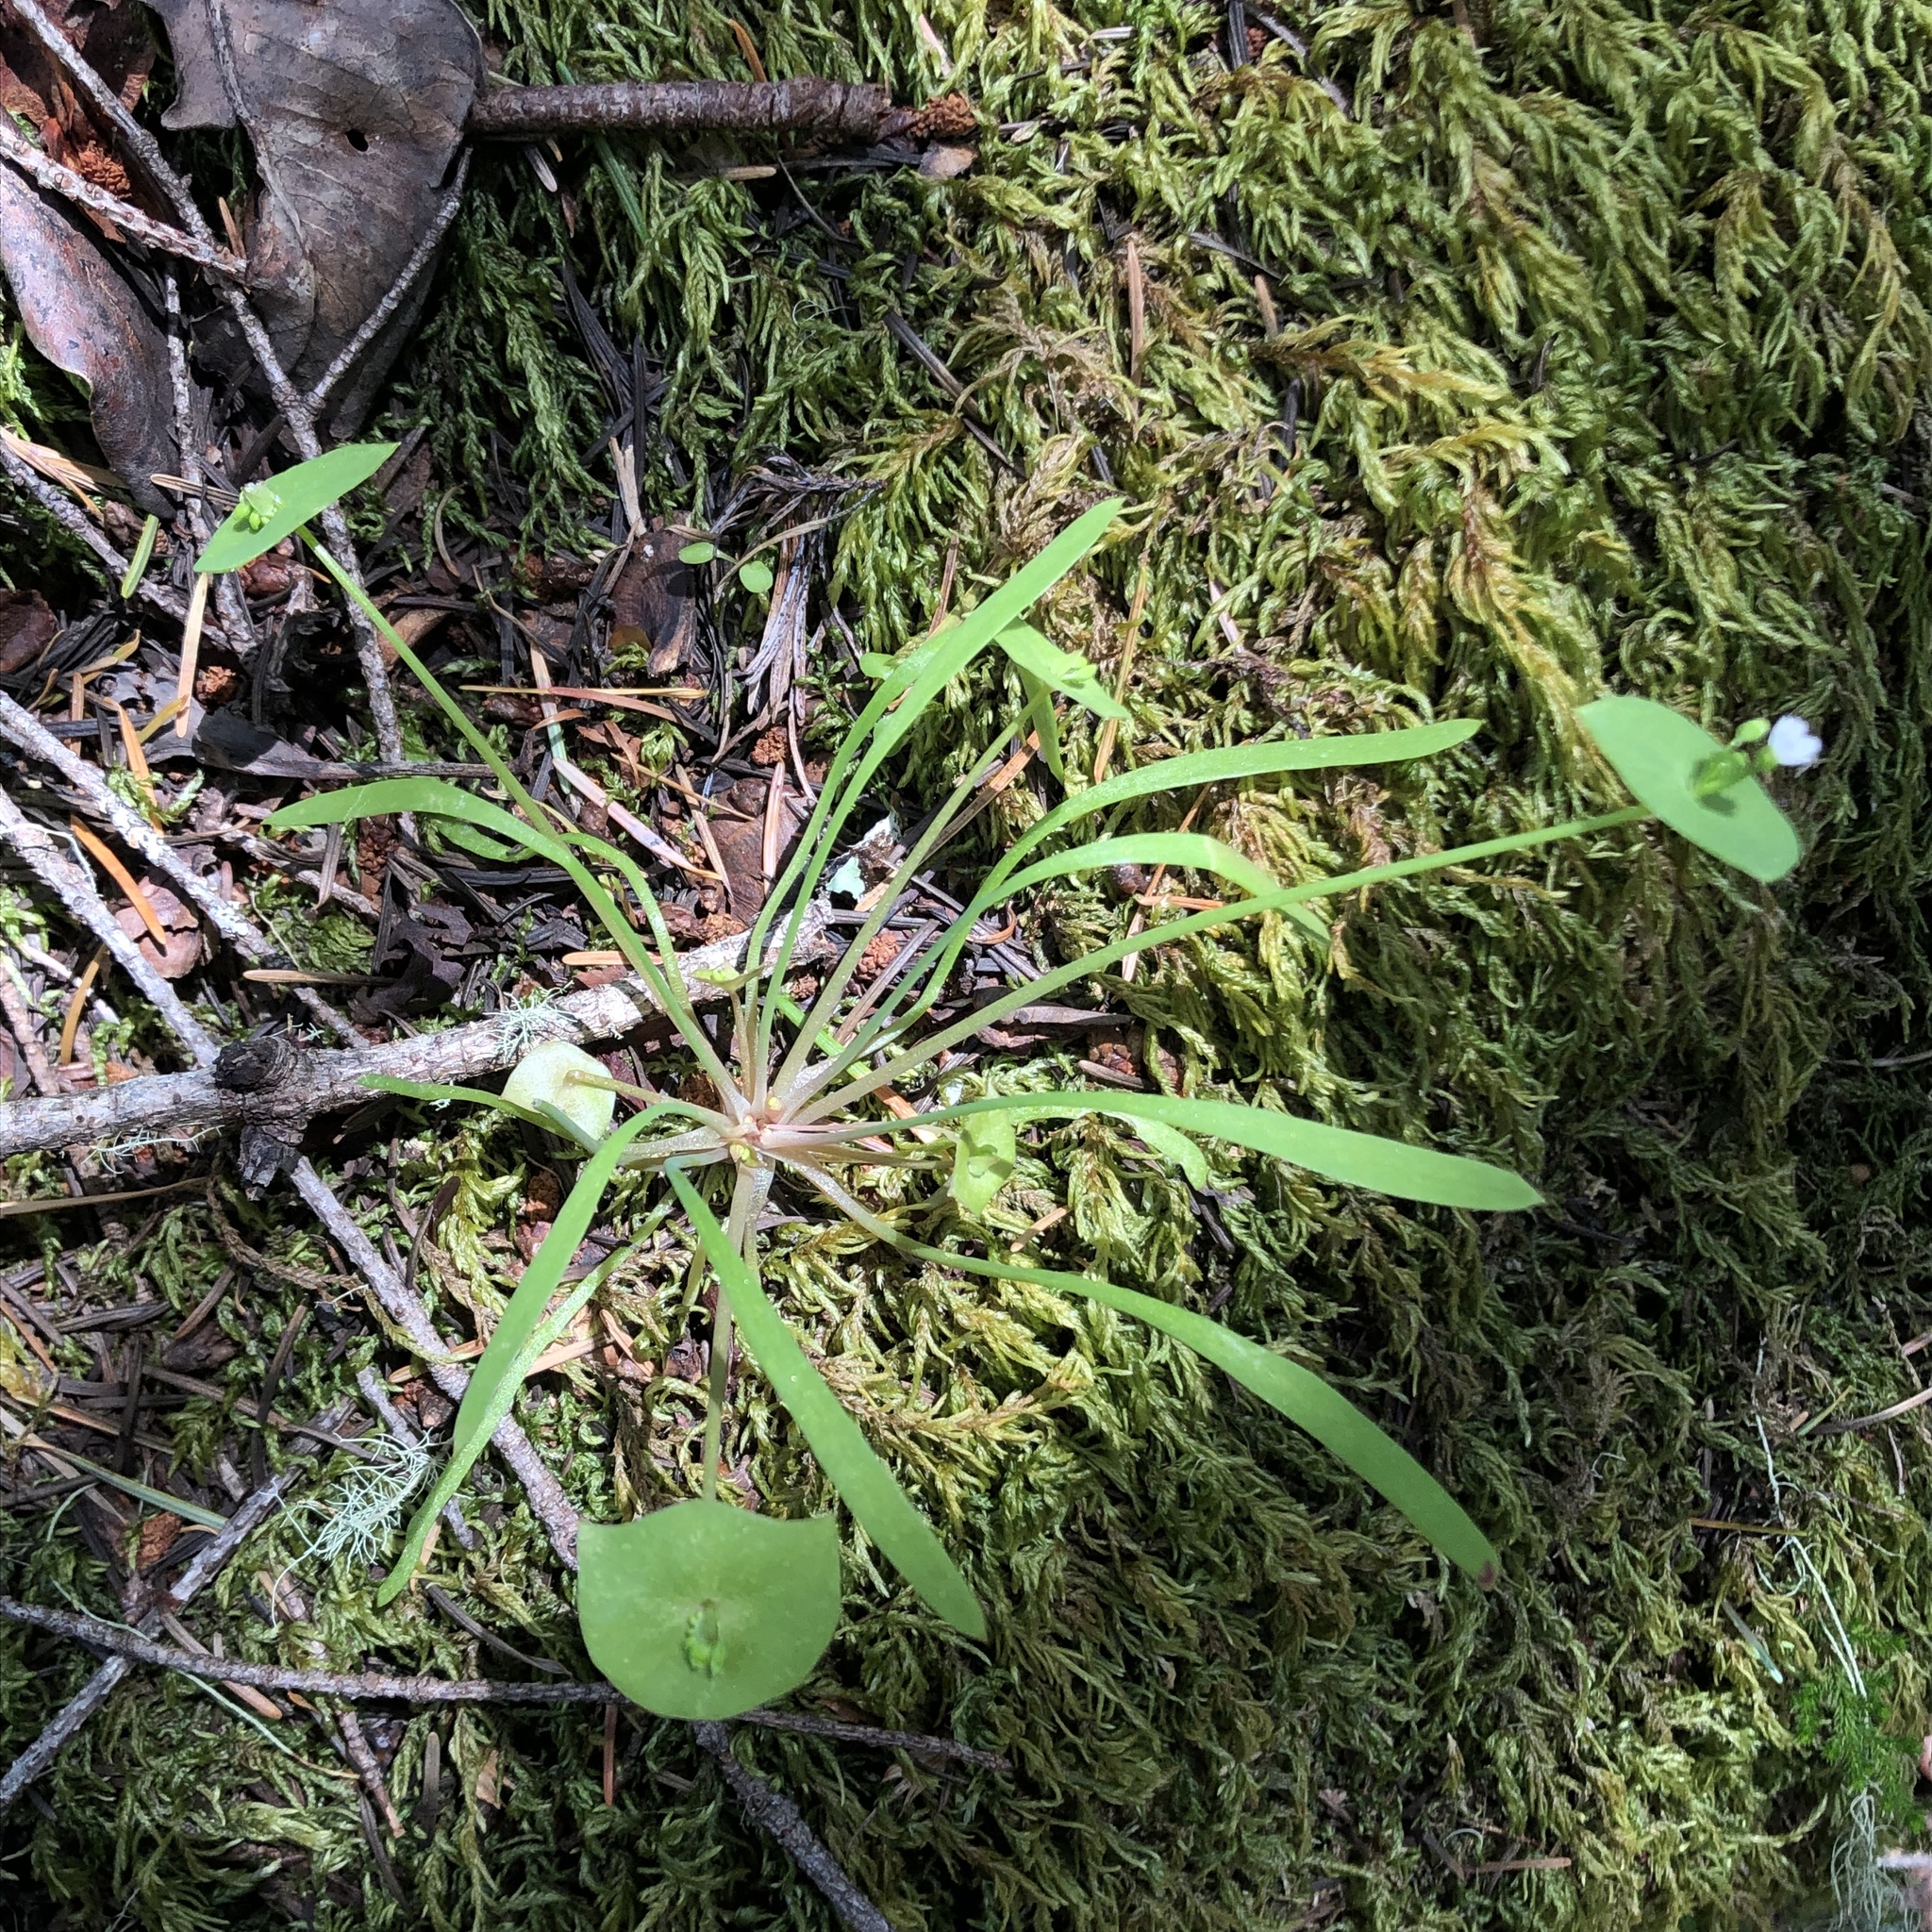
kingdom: Plantae
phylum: Tracheophyta
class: Magnoliopsida
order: Caryophyllales
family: Montiaceae
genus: Claytonia
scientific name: Claytonia parviflora
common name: Indian-lettuce
